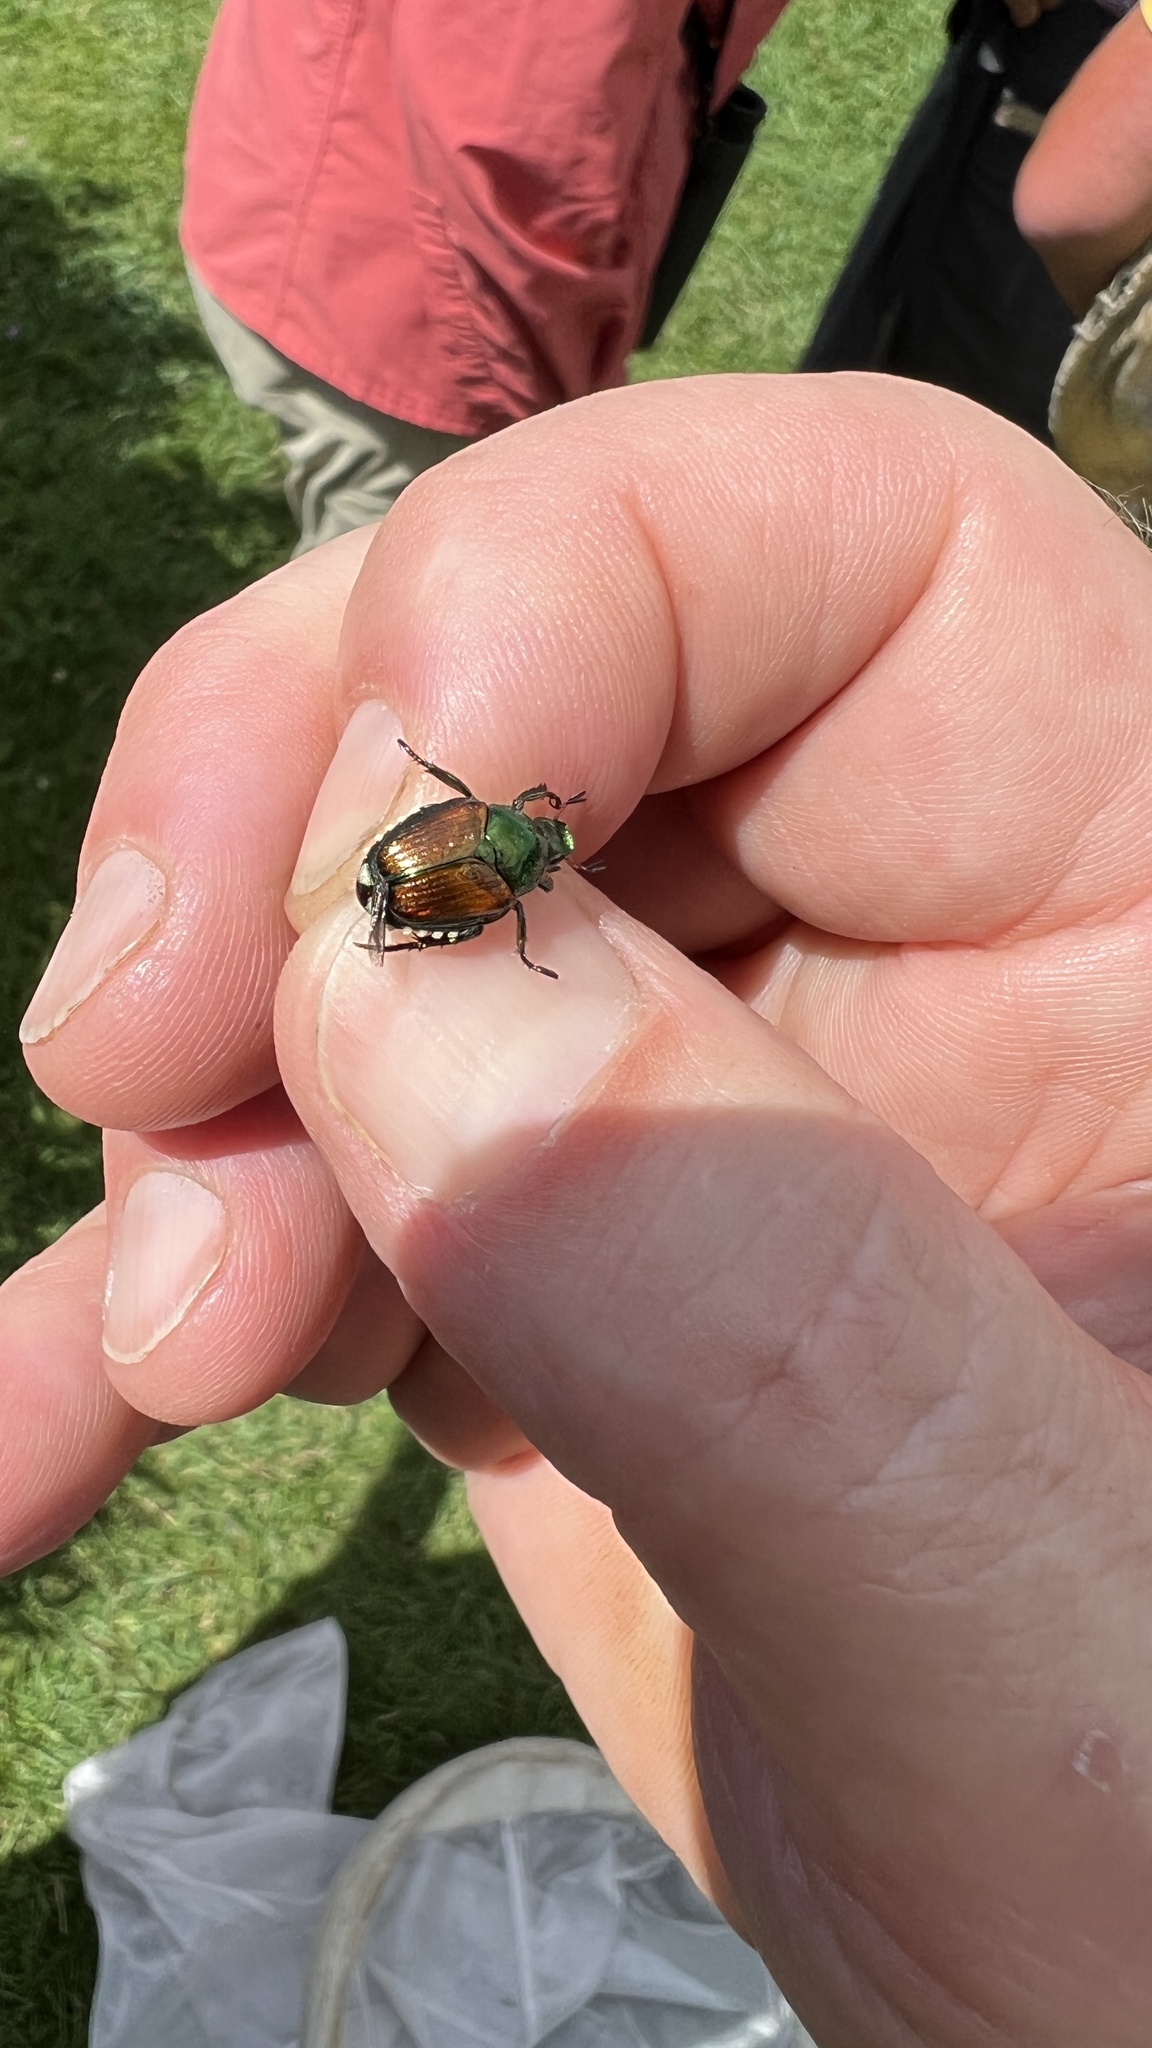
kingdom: Animalia
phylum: Arthropoda
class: Insecta
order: Coleoptera
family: Scarabaeidae
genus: Popillia
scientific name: Popillia japonica
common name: Japanese beetle
